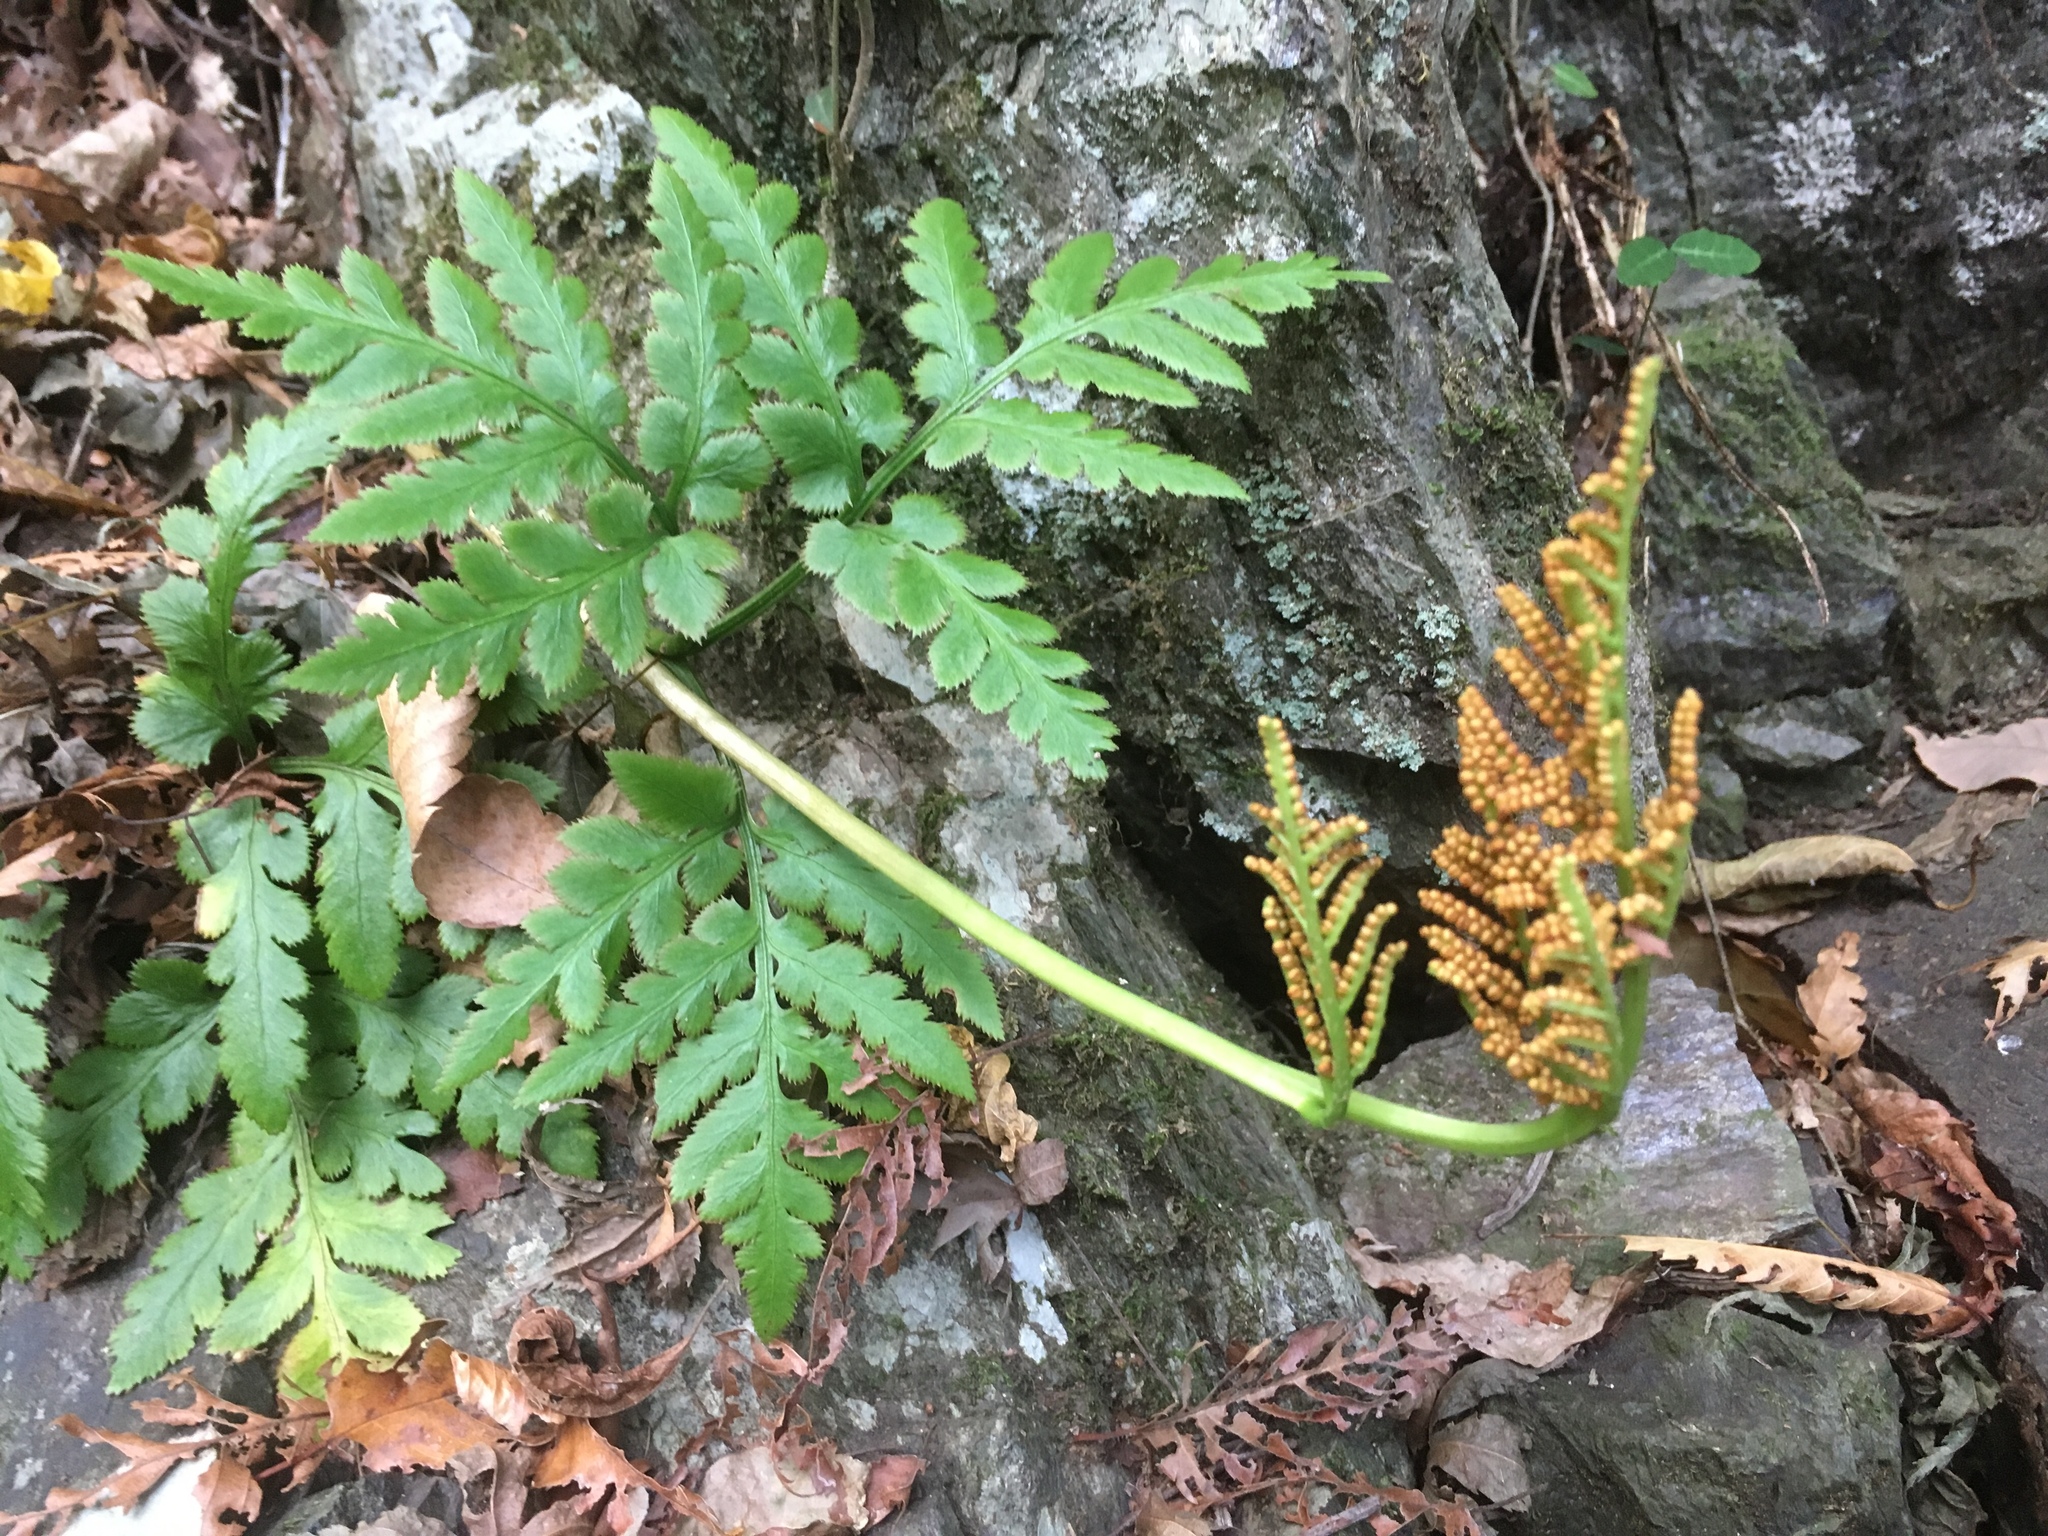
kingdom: Plantae
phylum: Tracheophyta
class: Polypodiopsida
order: Ophioglossales
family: Ophioglossaceae
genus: Sceptridium
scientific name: Sceptridium japonicum
